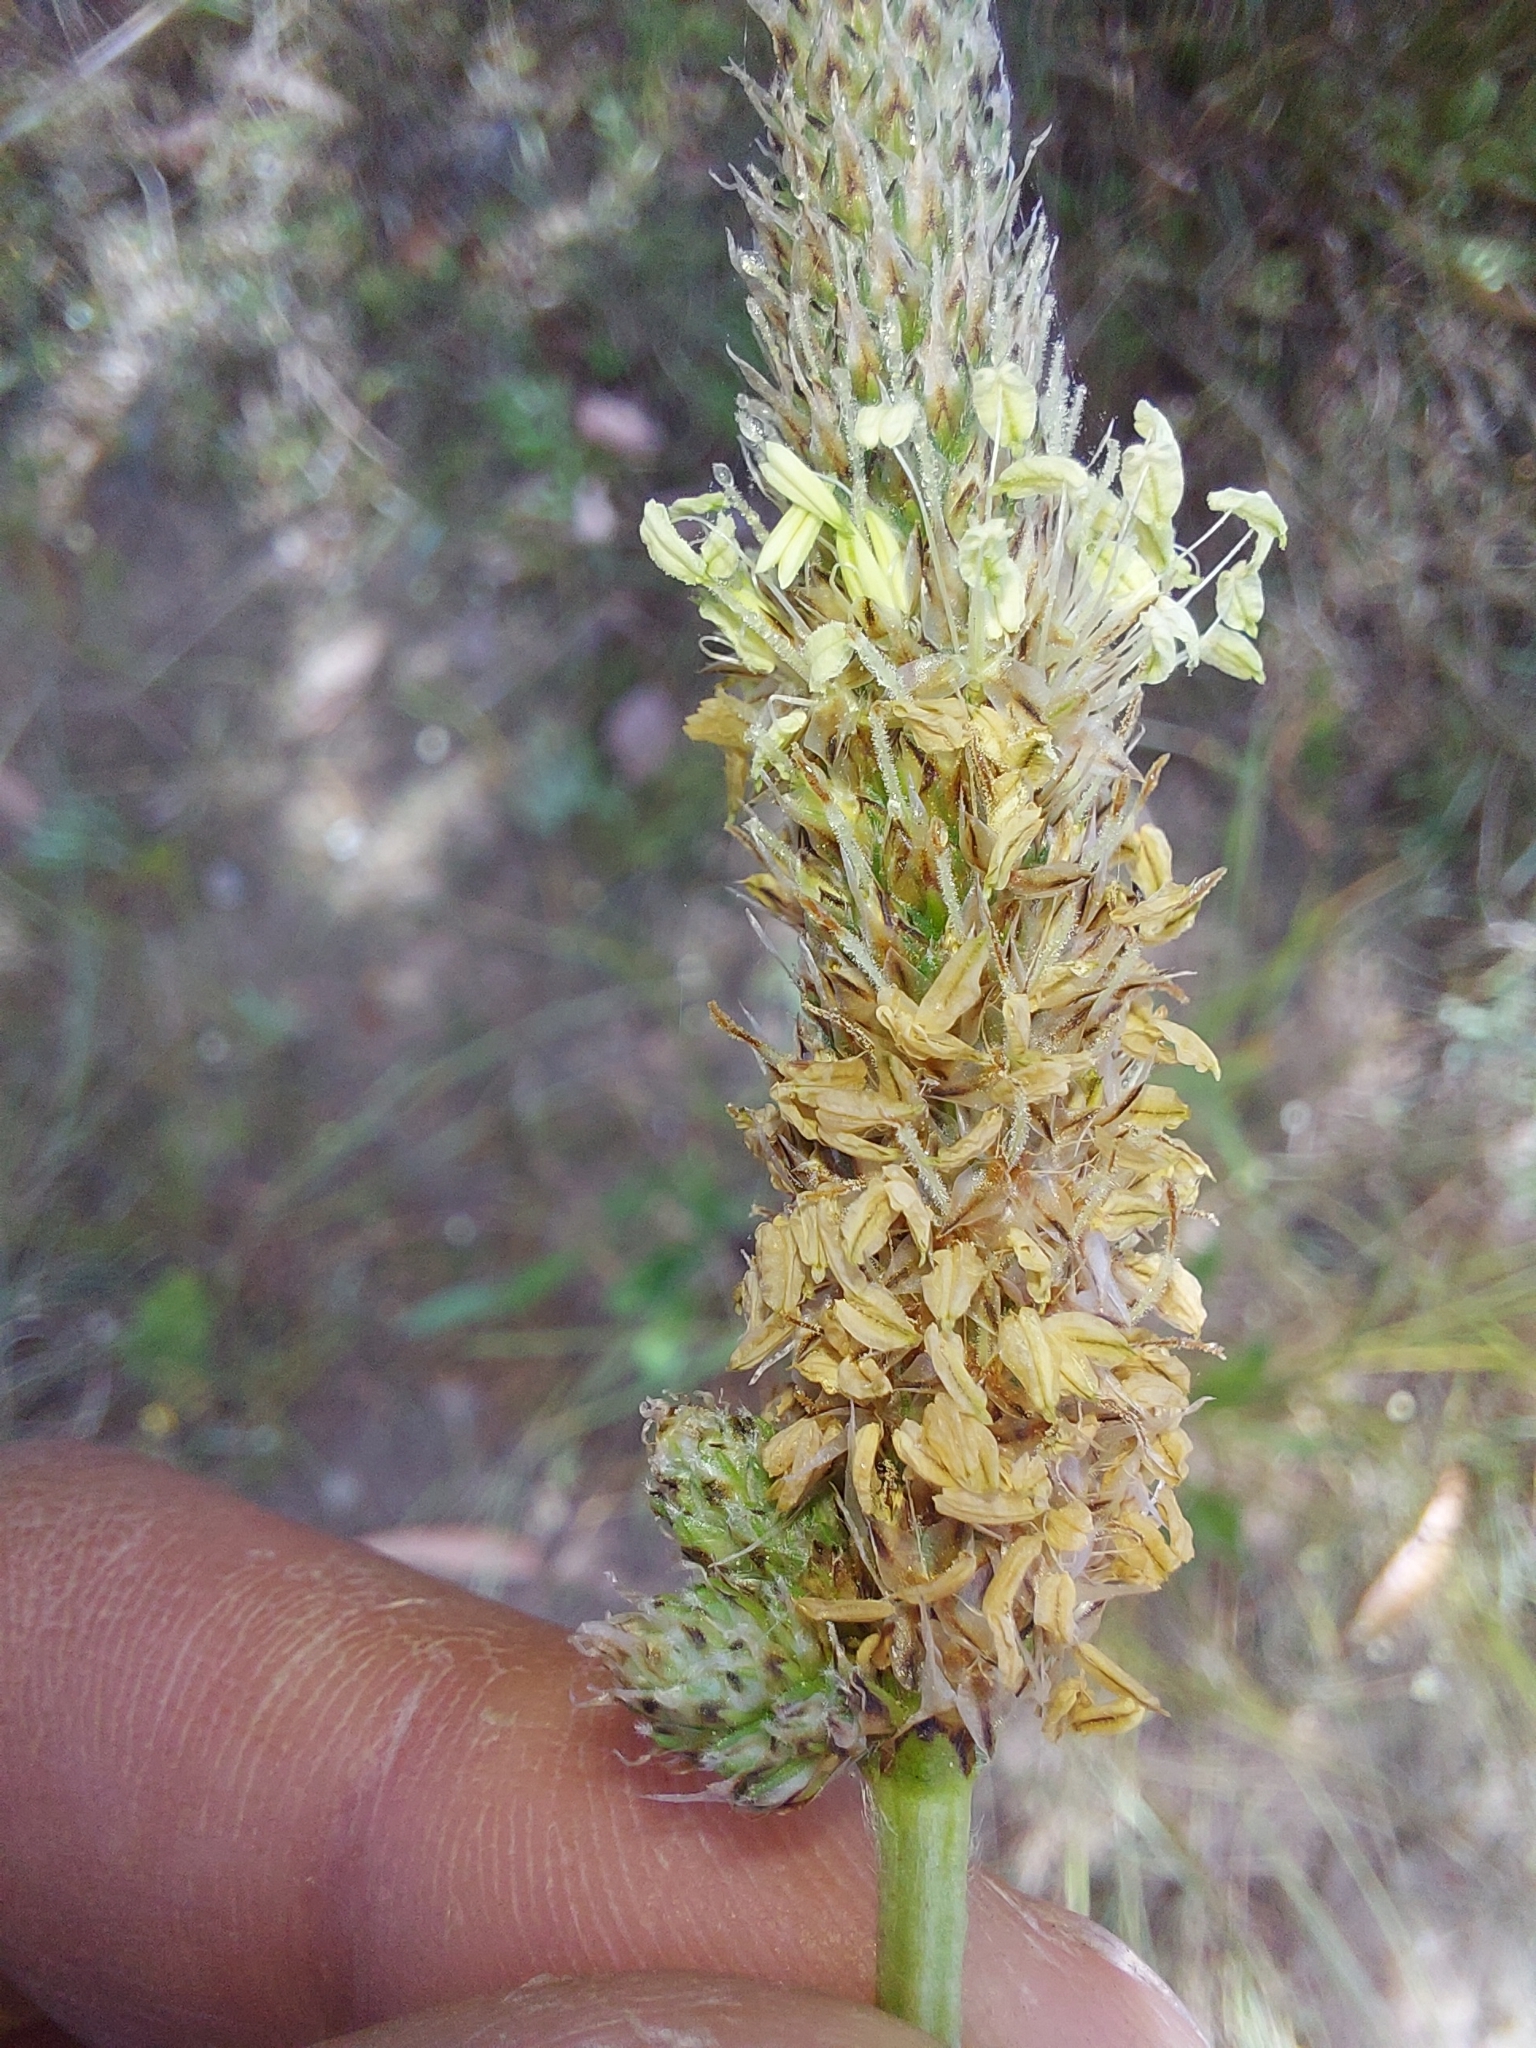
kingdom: Plantae
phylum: Tracheophyta
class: Magnoliopsida
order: Lamiales
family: Plantaginaceae
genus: Plantago
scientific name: Plantago lanceolata
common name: Ribwort plantain
